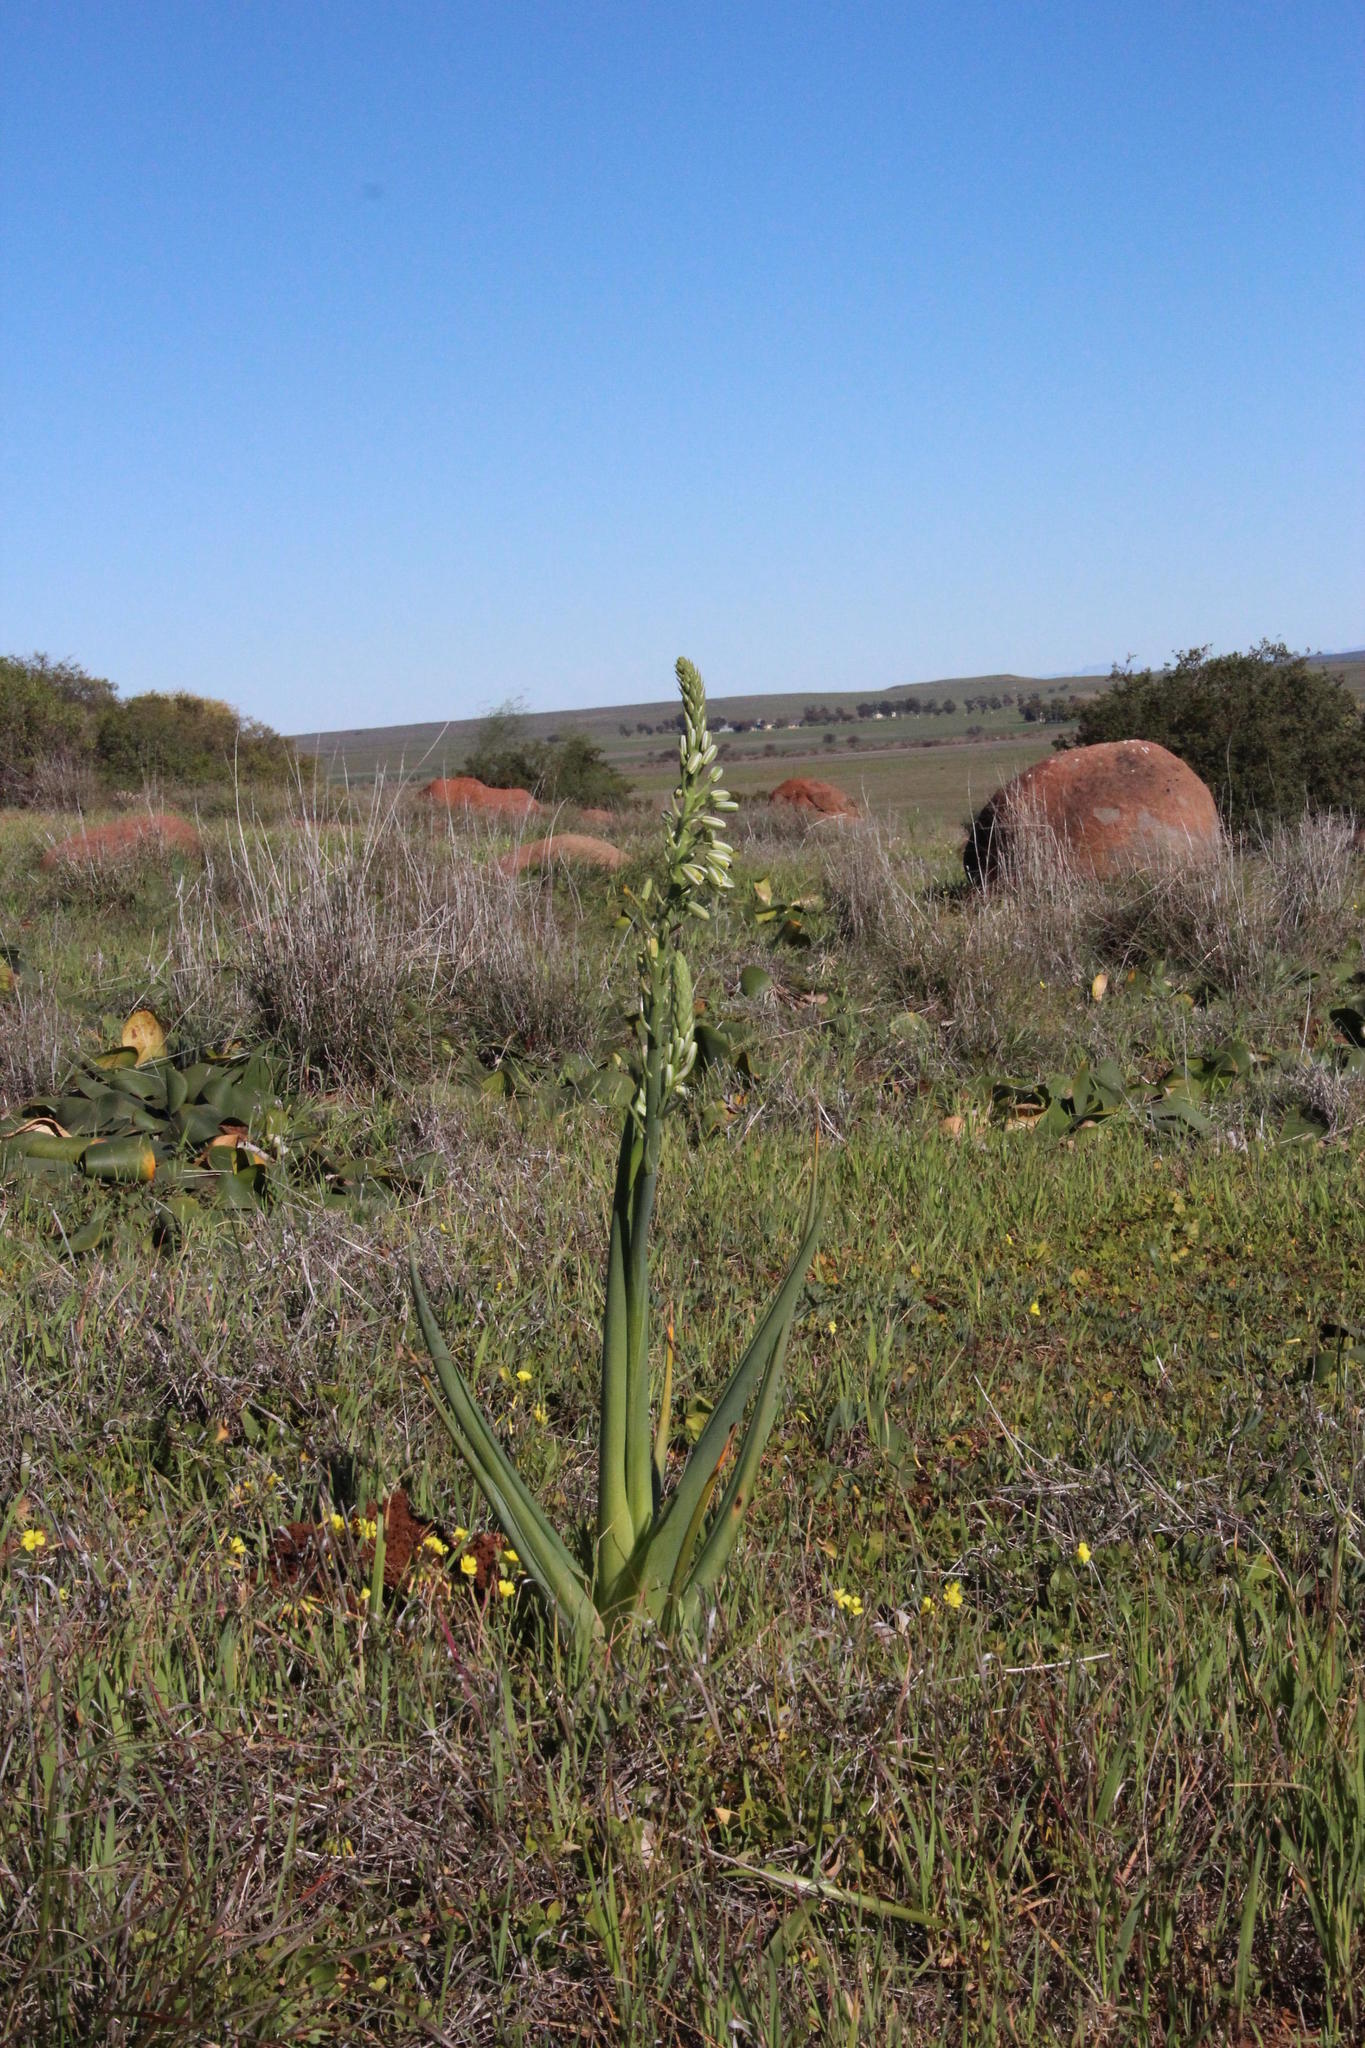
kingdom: Plantae
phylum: Tracheophyta
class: Liliopsida
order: Asparagales
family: Asparagaceae
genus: Albuca
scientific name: Albuca canadensis
